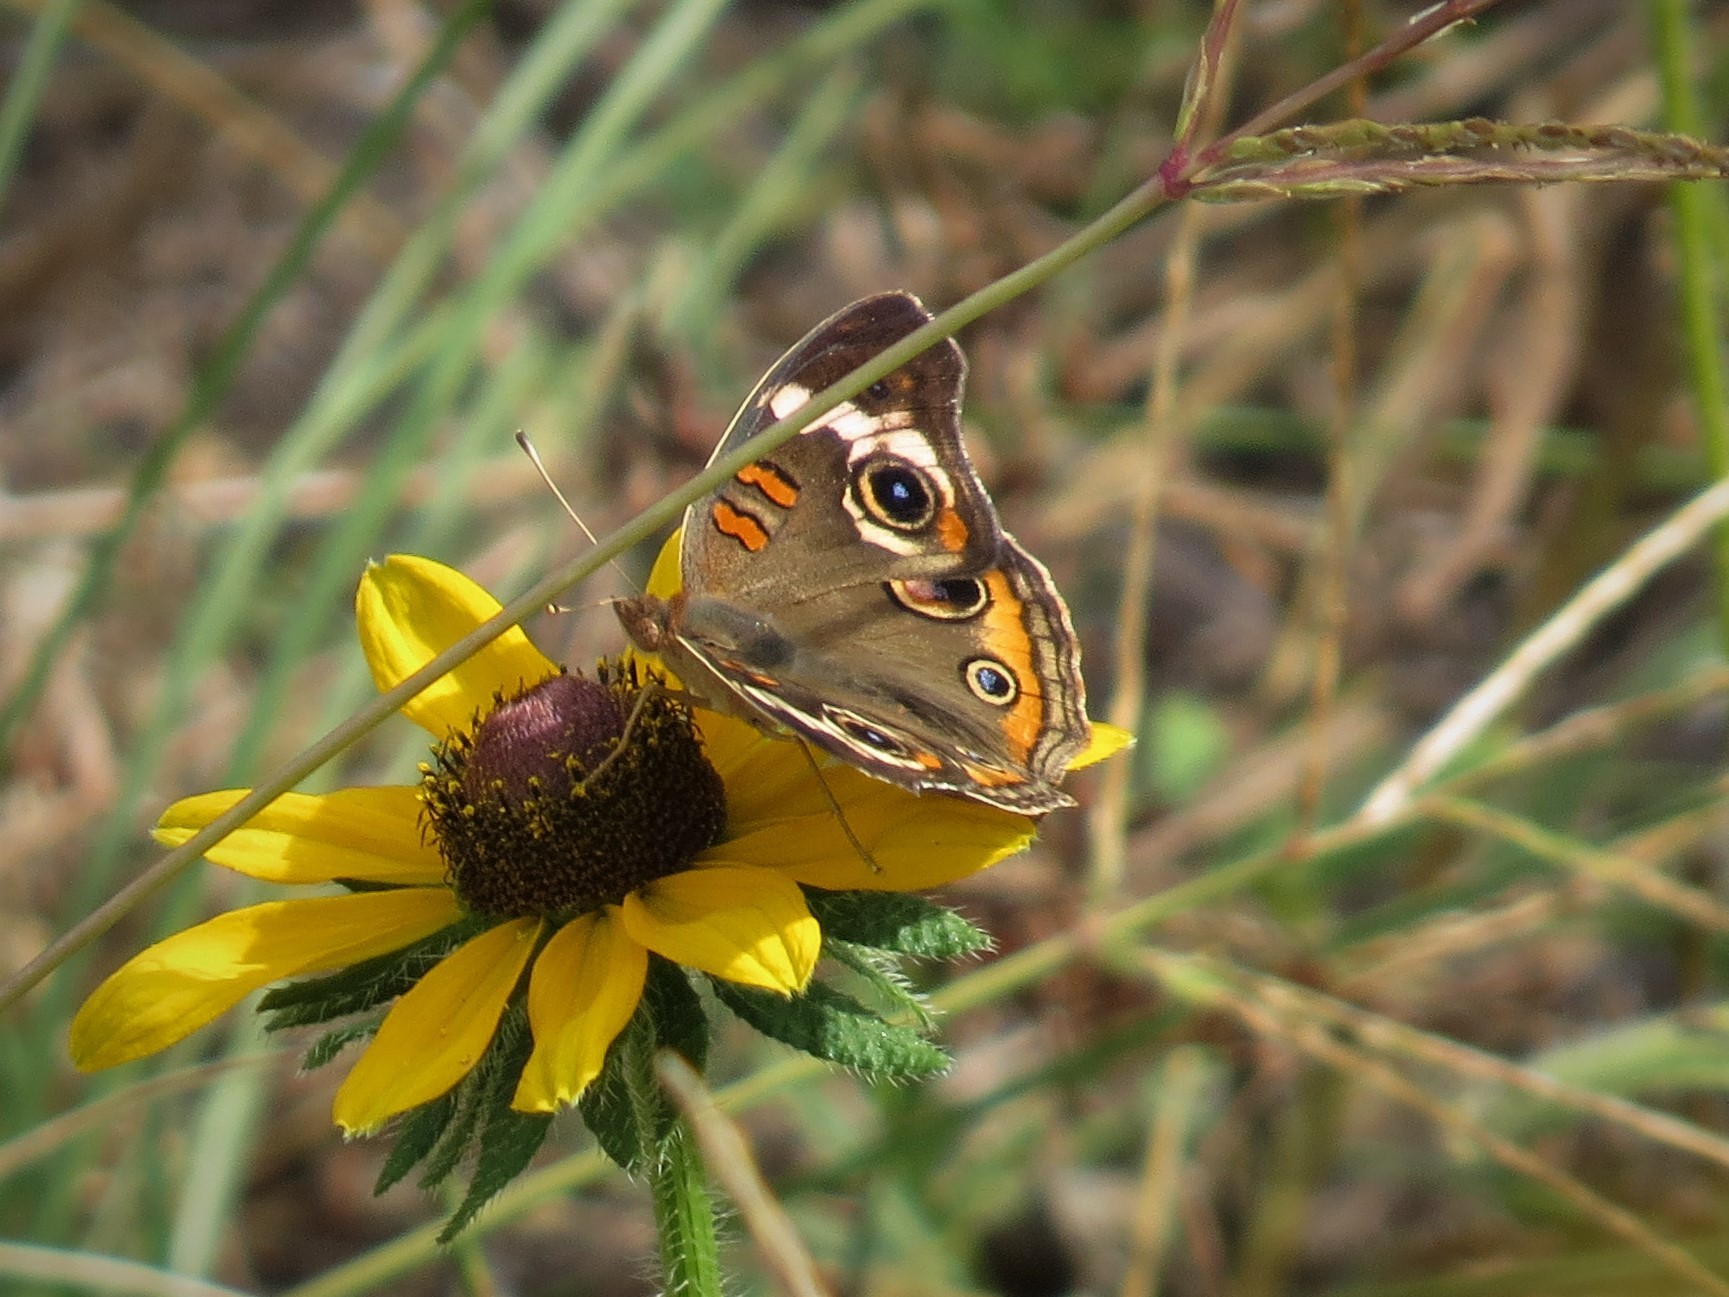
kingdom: Animalia
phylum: Arthropoda
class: Insecta
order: Lepidoptera
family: Nymphalidae
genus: Junonia
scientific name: Junonia coenia
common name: Common buckeye
